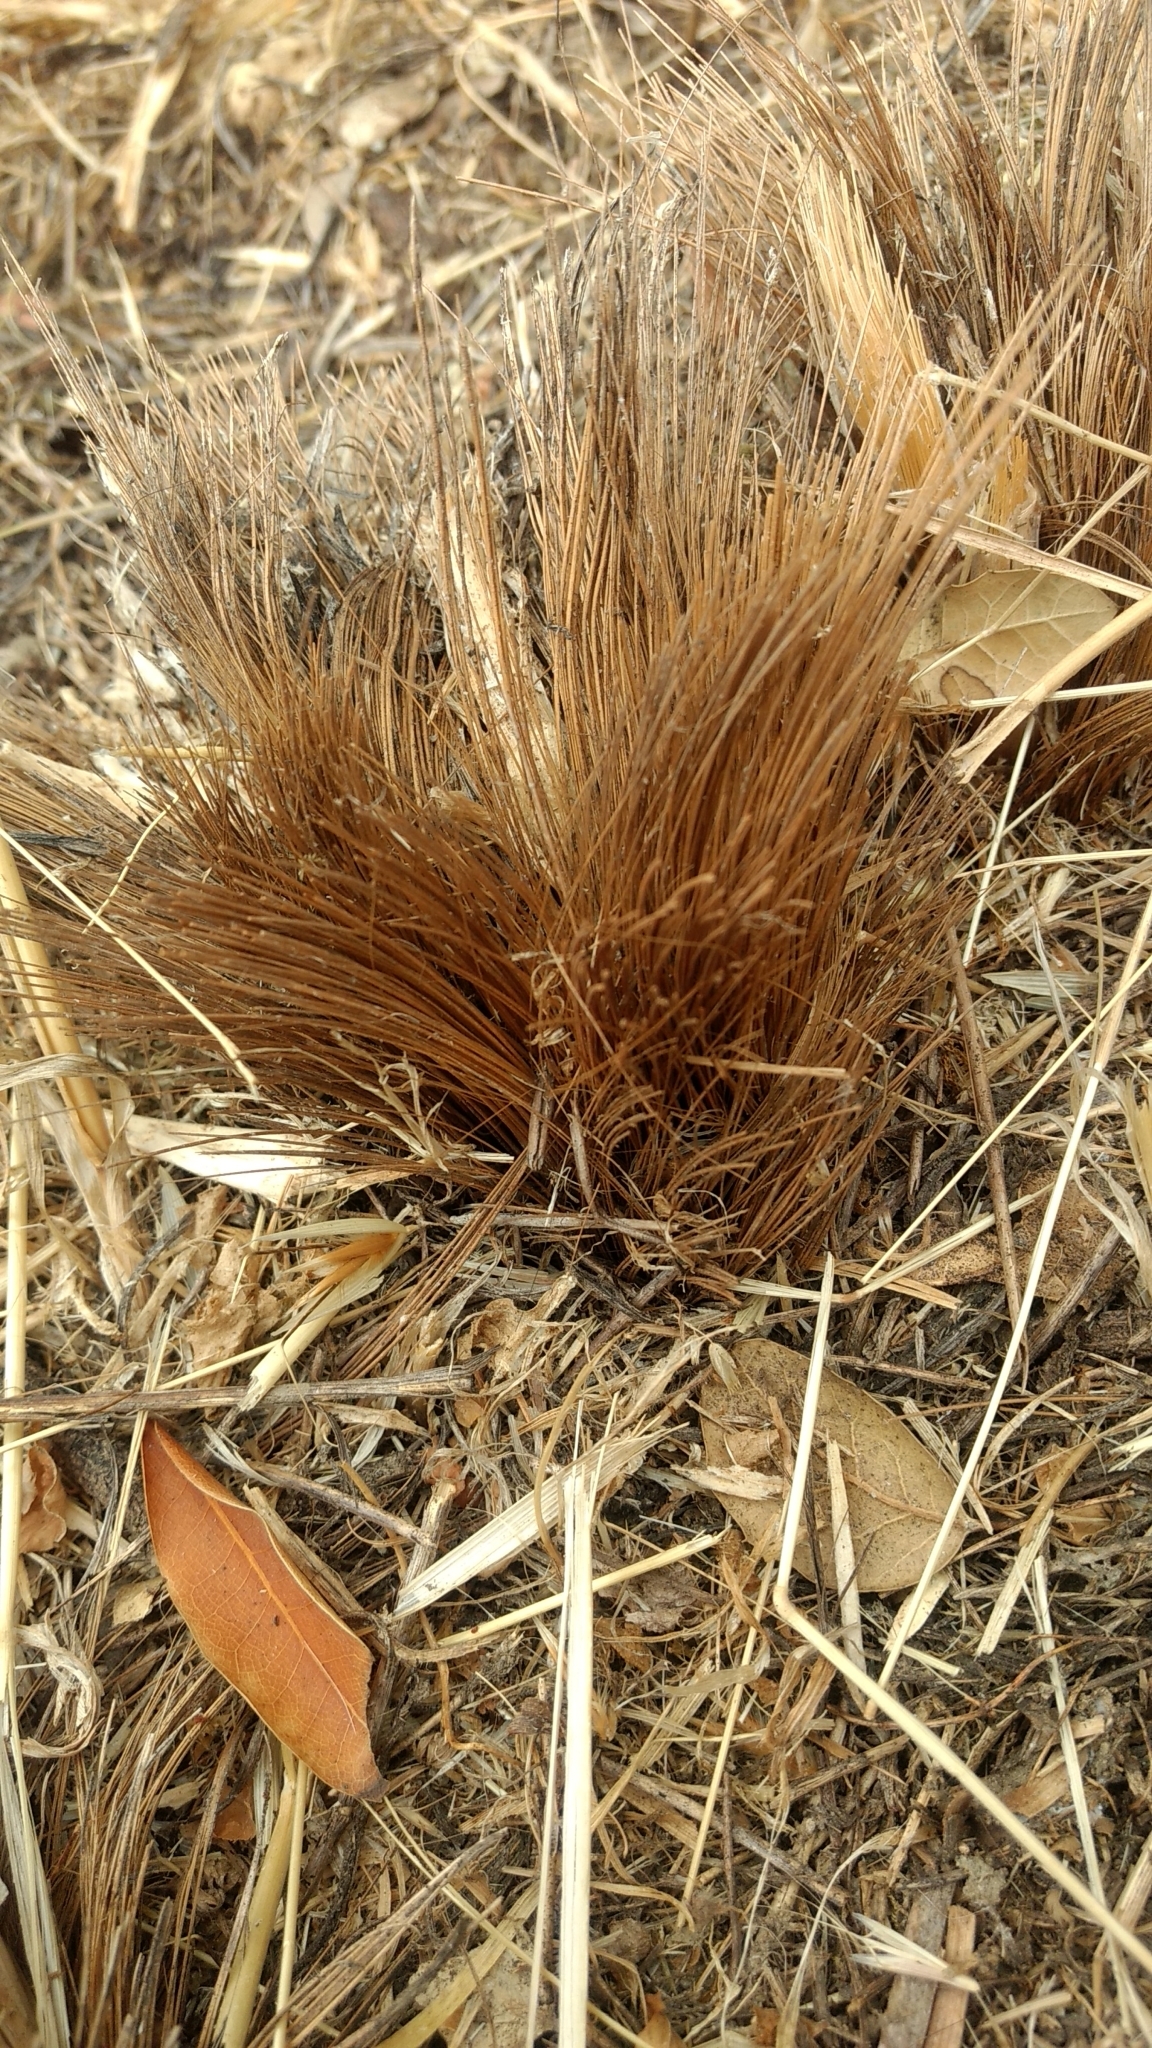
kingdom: Plantae
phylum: Tracheophyta
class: Liliopsida
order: Asparagales
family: Asparagaceae
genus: Chlorogalum
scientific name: Chlorogalum pomeridianum
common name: Amole
